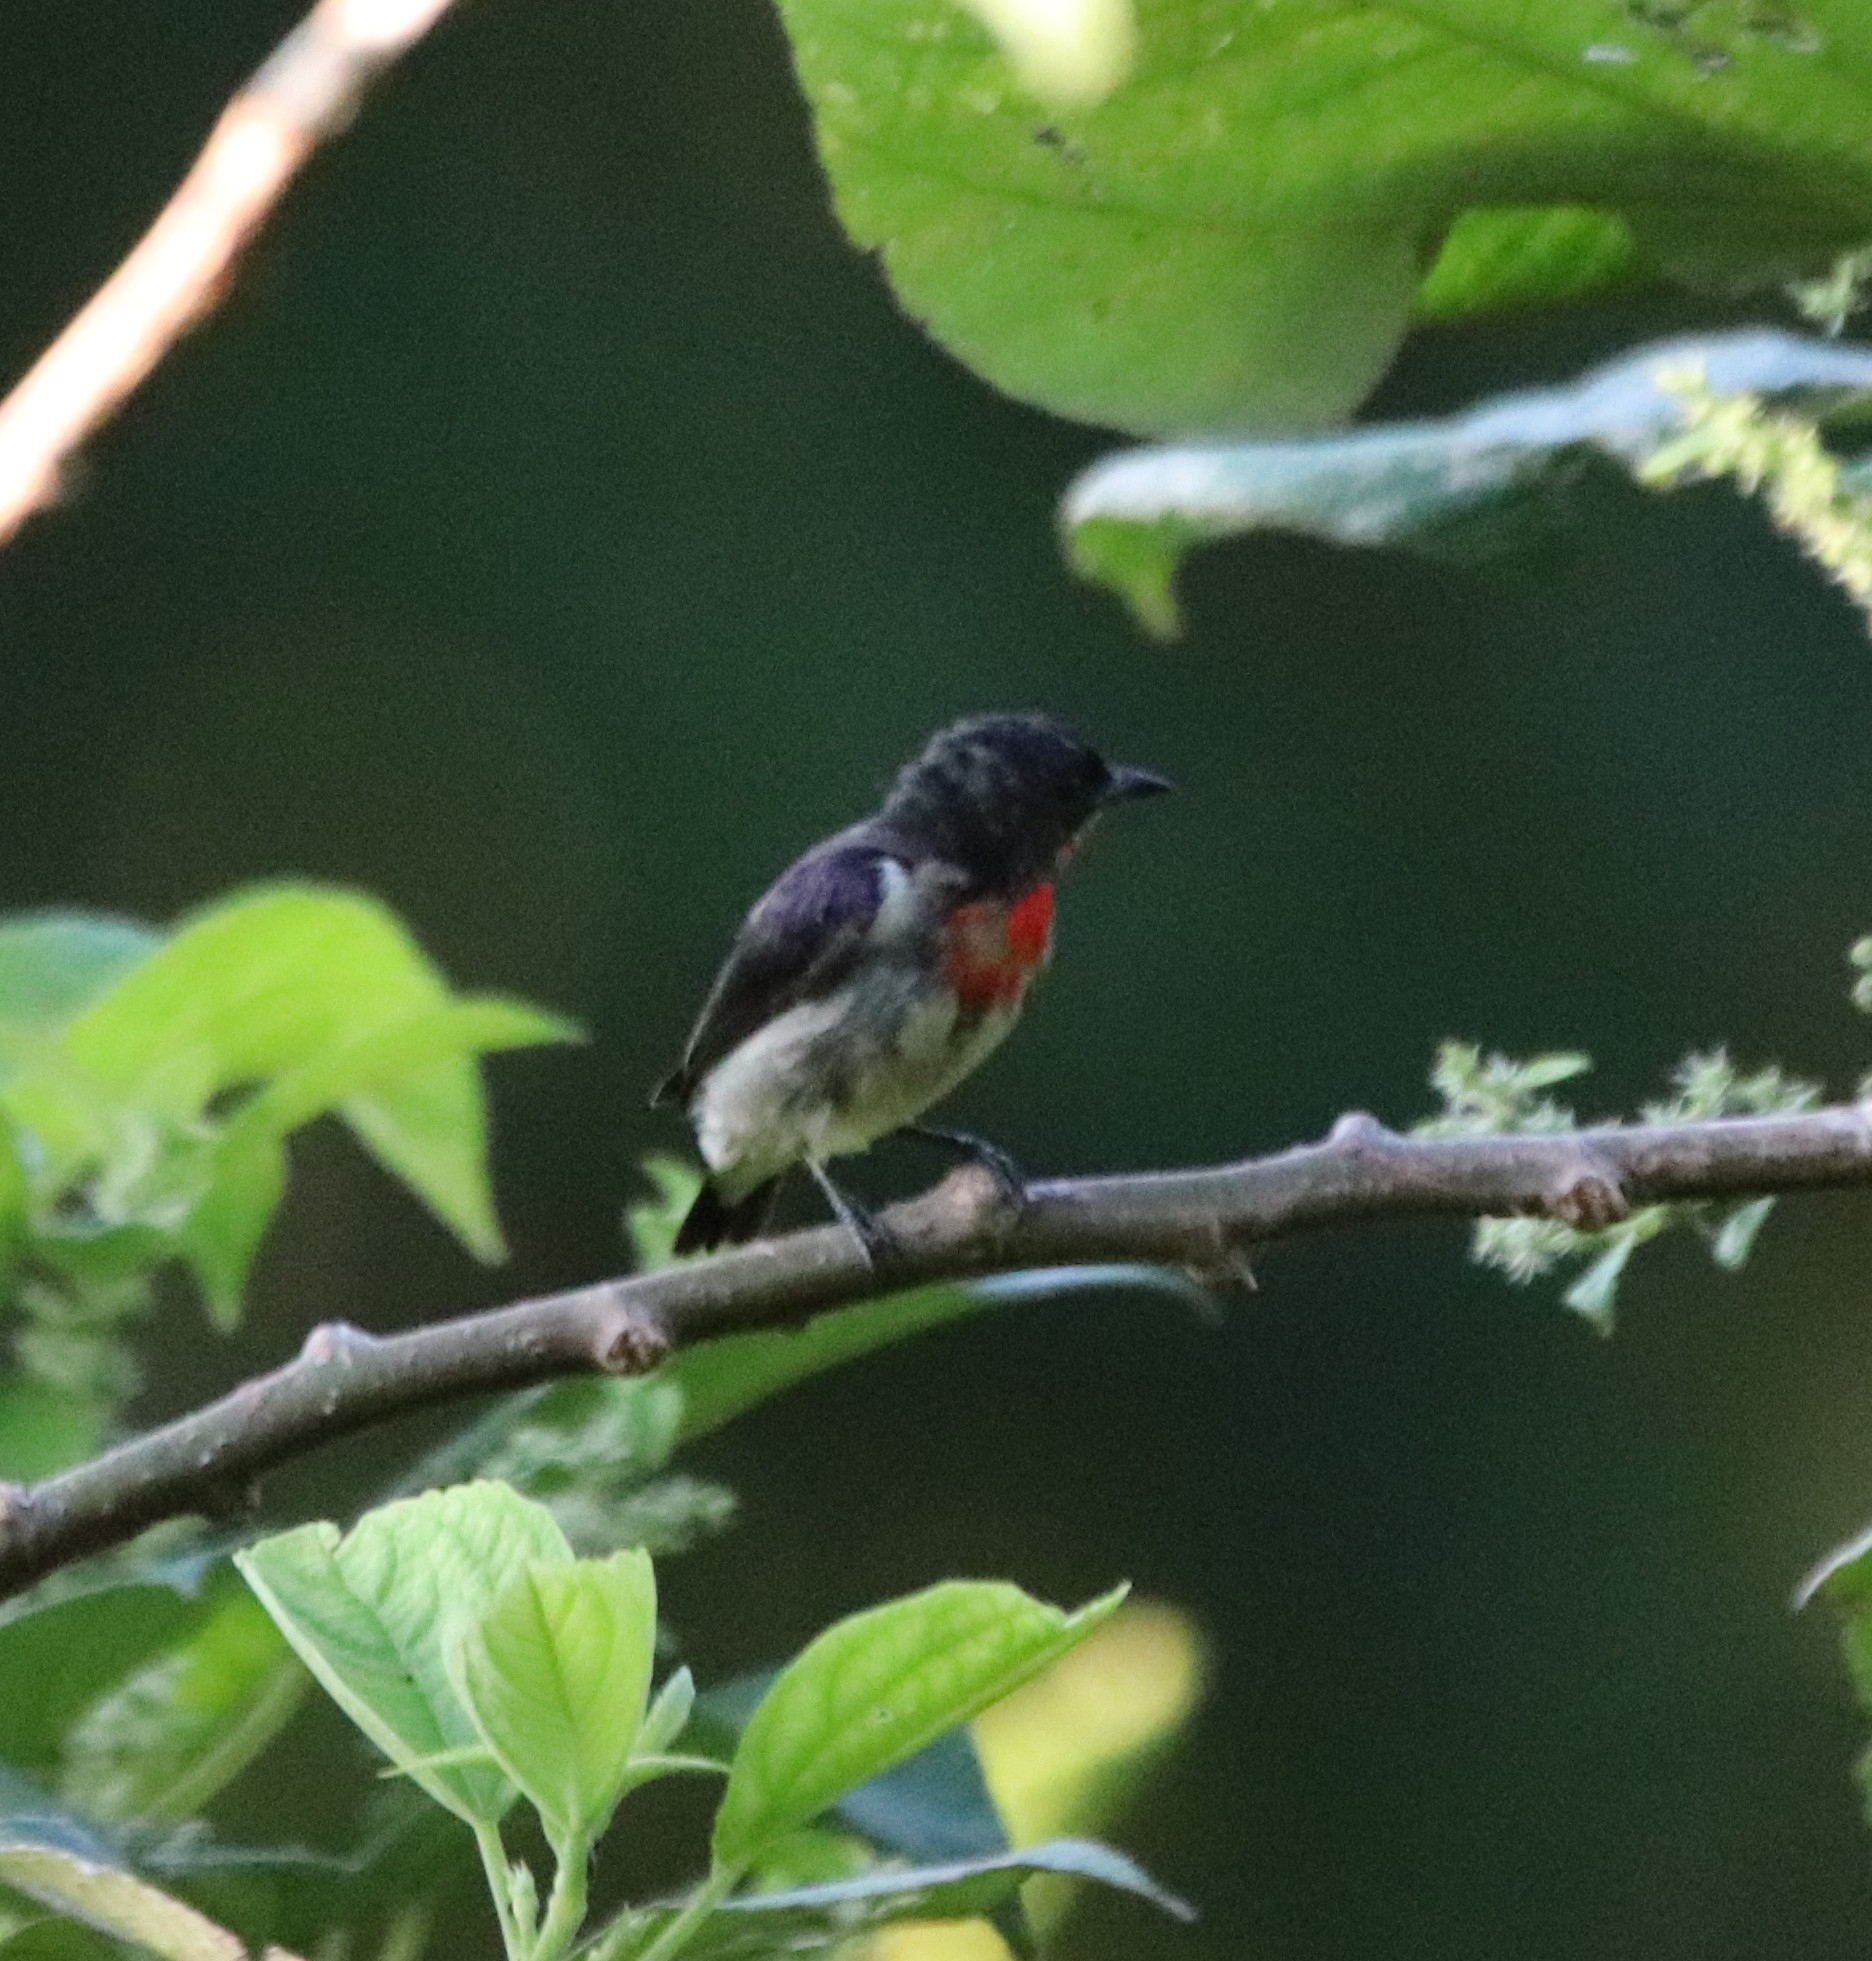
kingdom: Animalia
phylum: Chordata
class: Aves
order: Passeriformes
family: Dicaeidae
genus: Dicaeum
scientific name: Dicaeum celebicum
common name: Grey-sided flowerpecker
